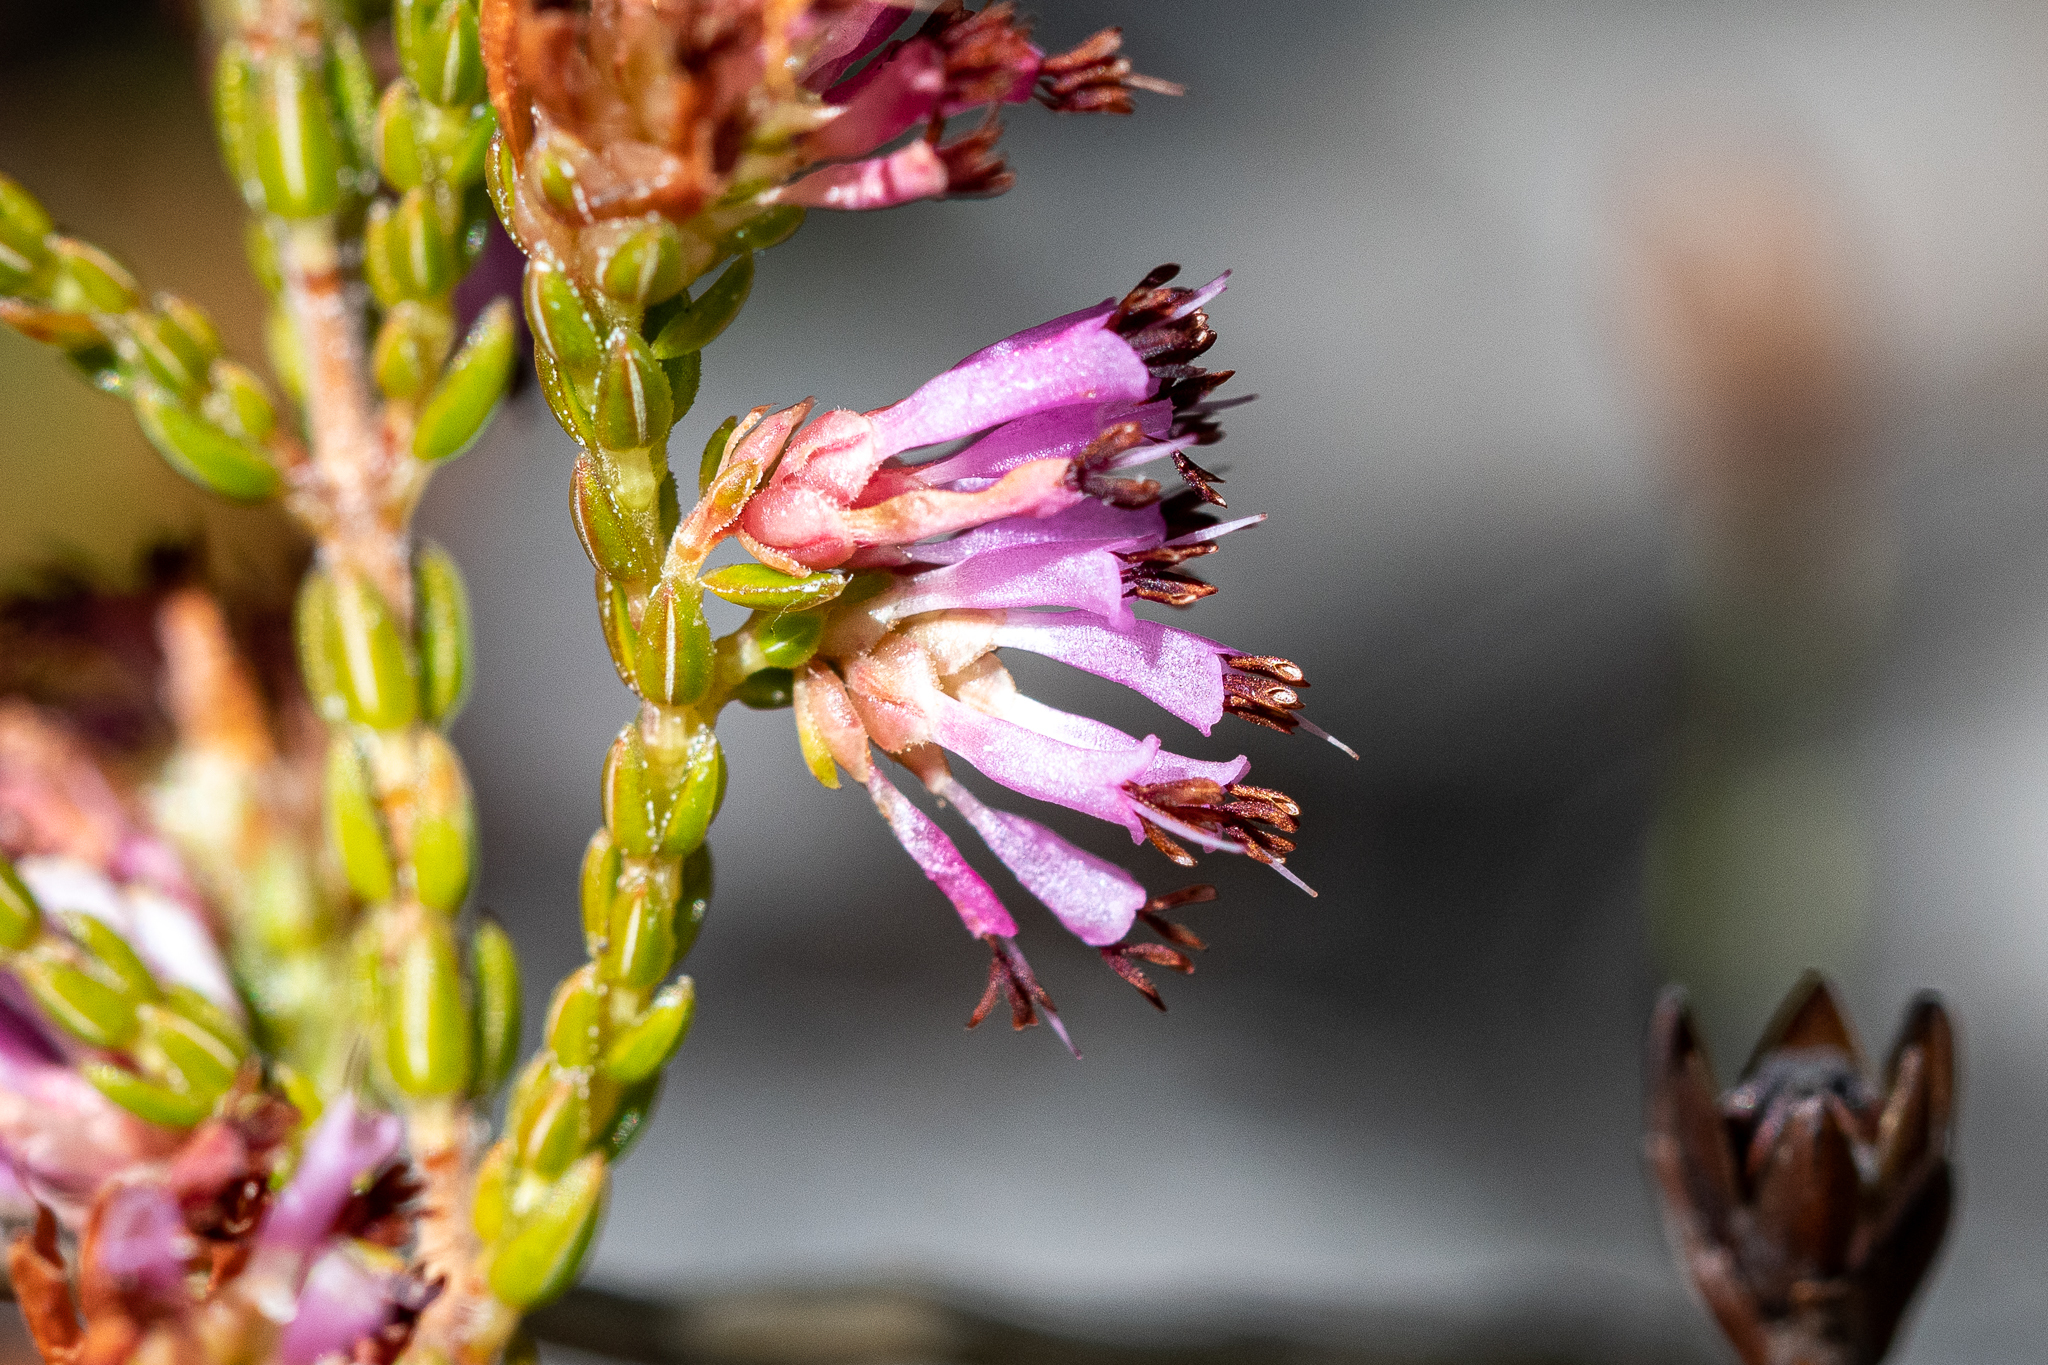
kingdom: Plantae
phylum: Tracheophyta
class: Magnoliopsida
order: Ericales
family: Ericaceae
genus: Erica
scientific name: Erica labialis
